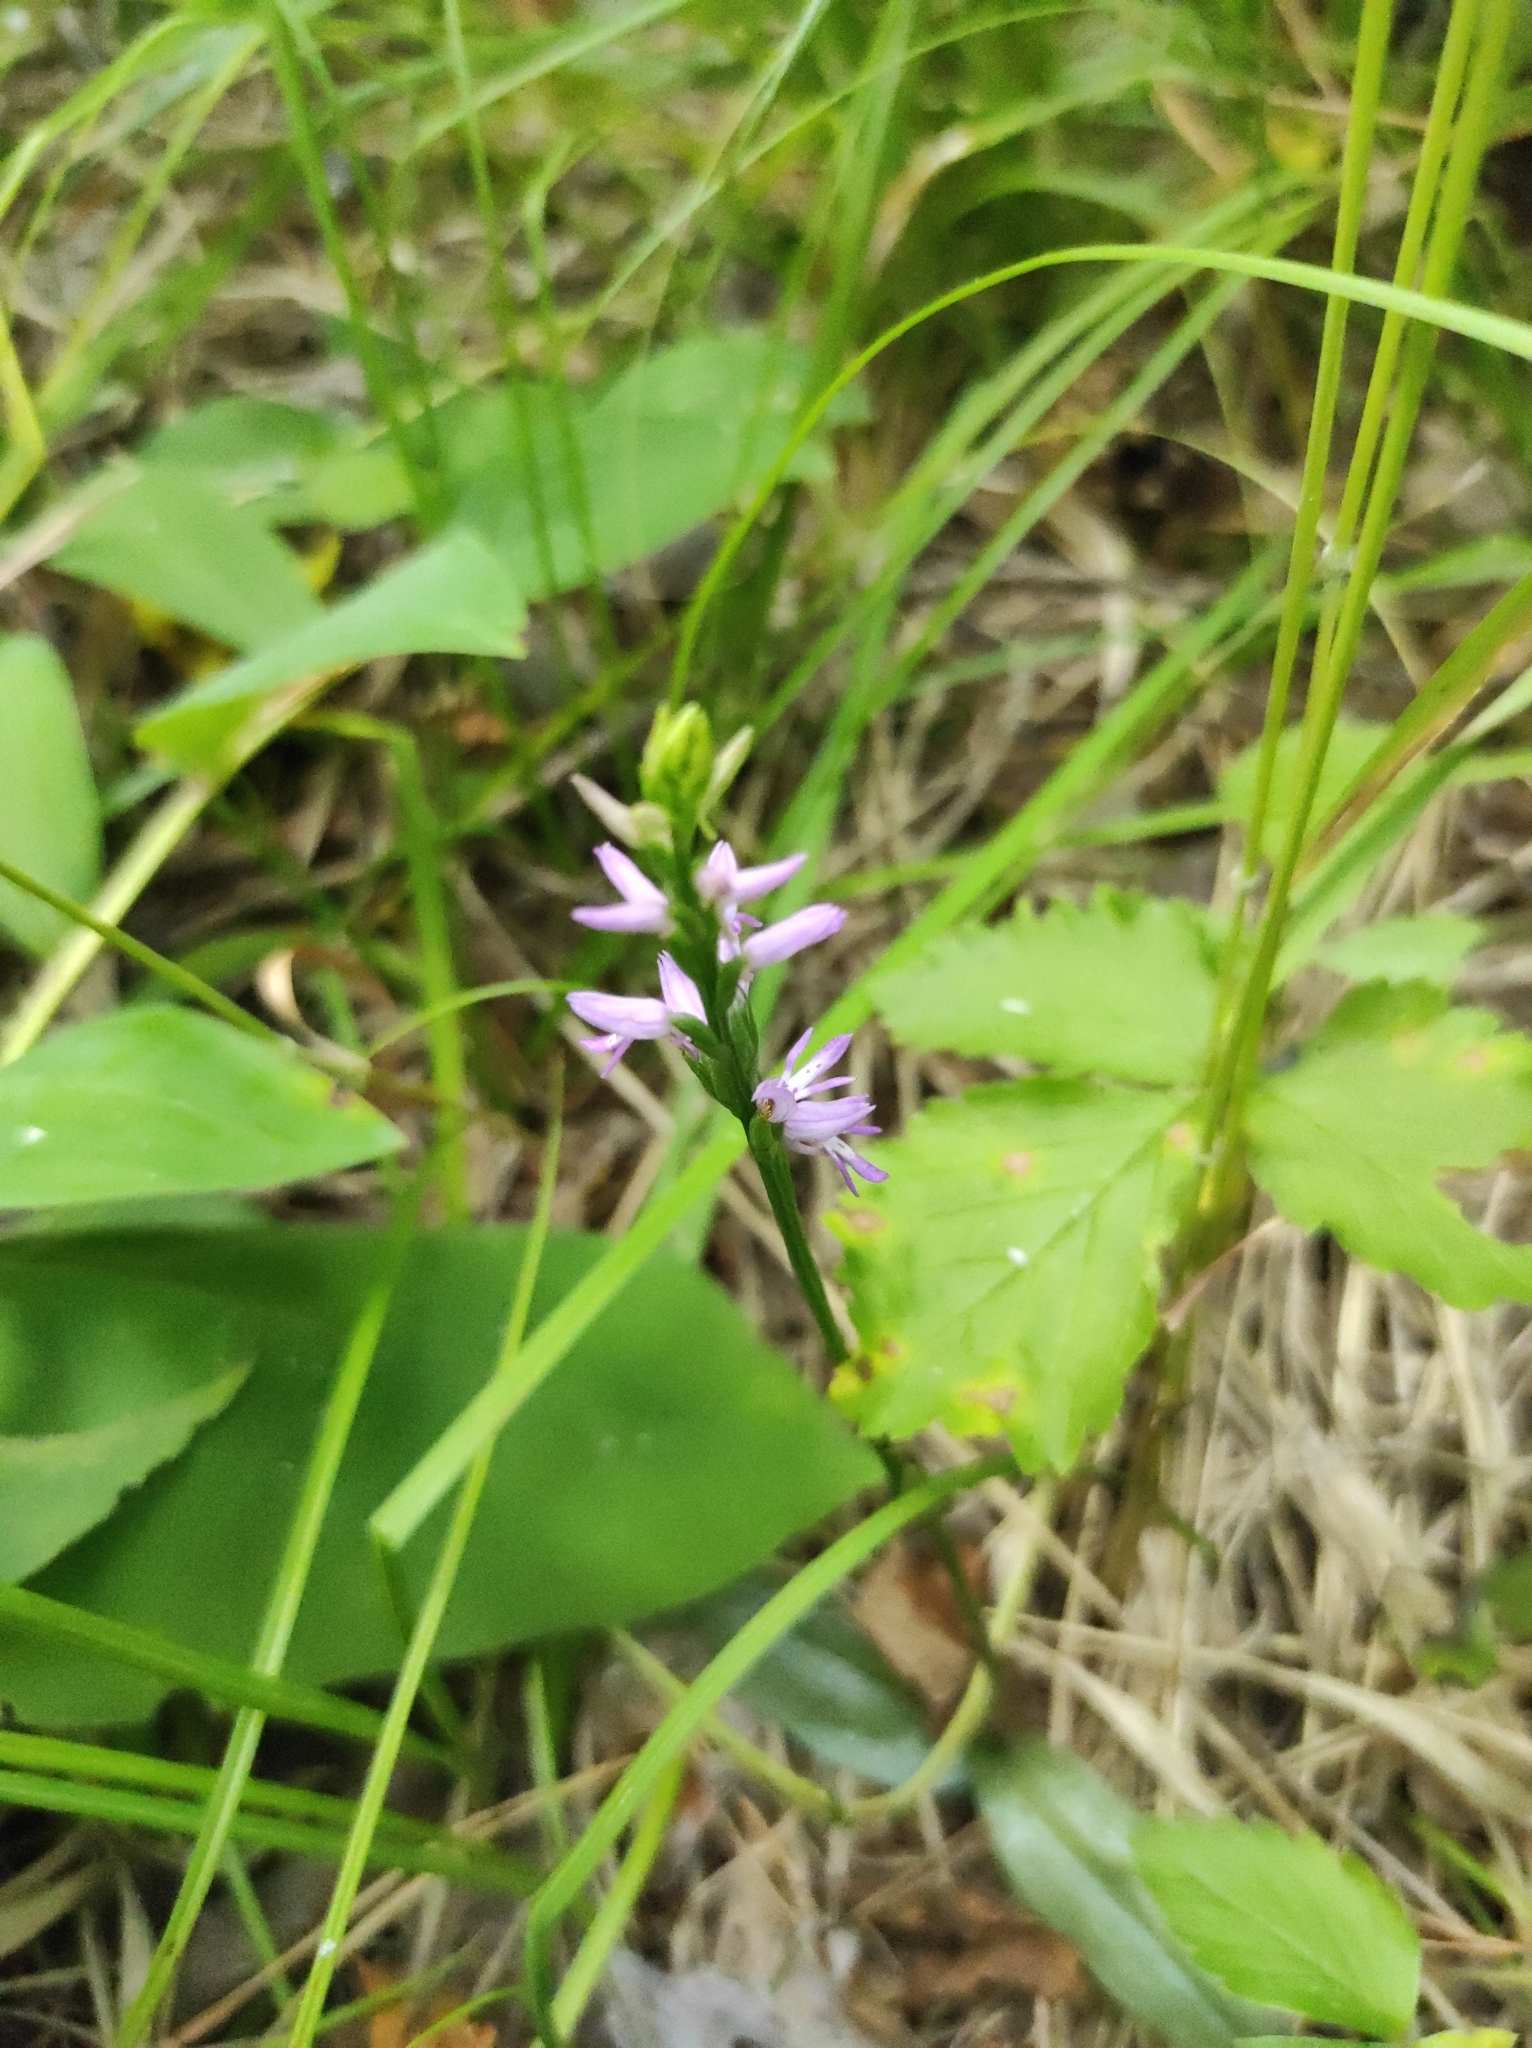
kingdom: Plantae
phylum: Tracheophyta
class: Liliopsida
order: Asparagales
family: Orchidaceae
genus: Hemipilia
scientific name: Hemipilia cucullata
